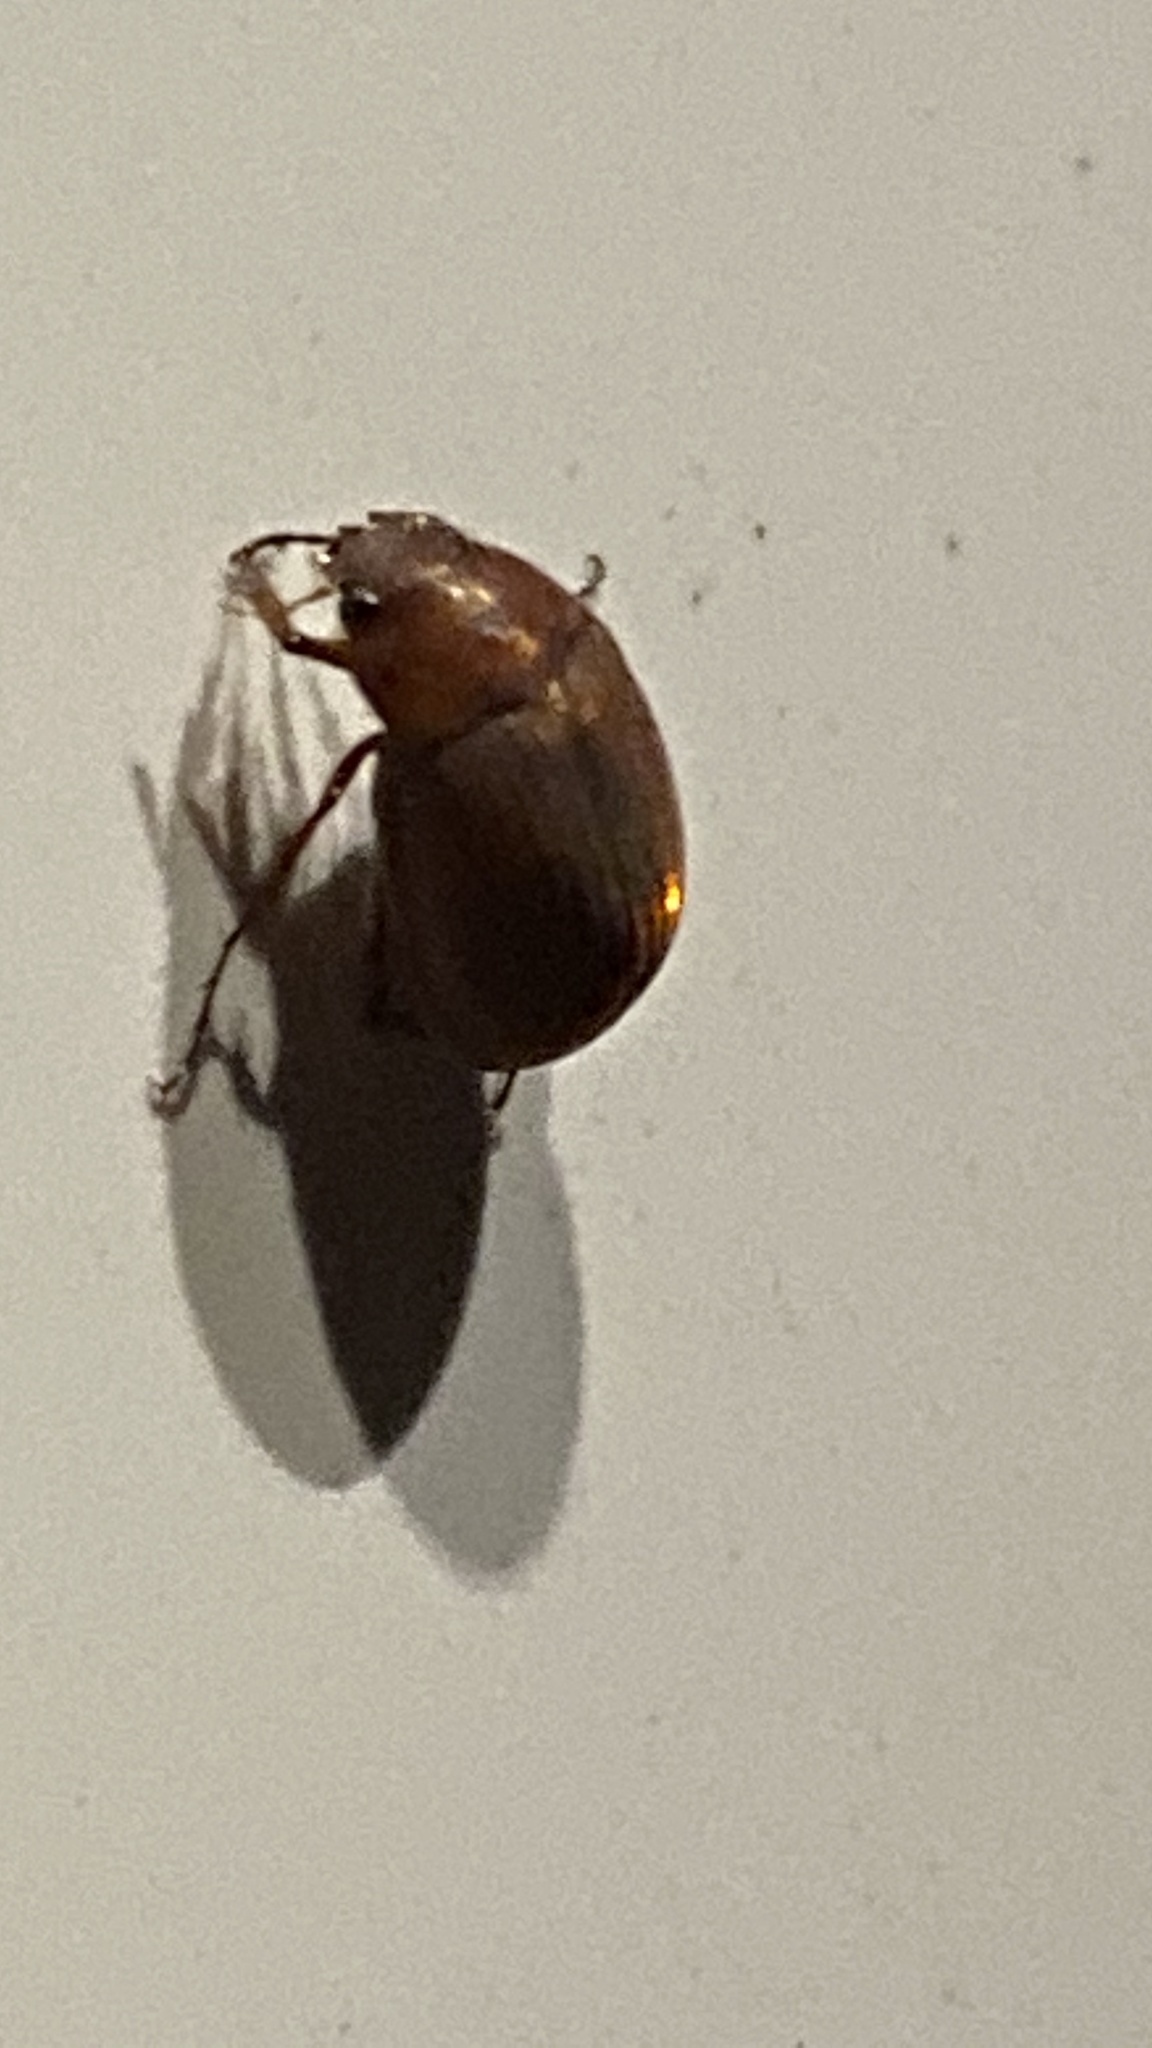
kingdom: Animalia
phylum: Arthropoda
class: Insecta
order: Coleoptera
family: Scarabaeidae
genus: Maladera
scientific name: Maladera formosae
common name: Asiatic garden beetle
